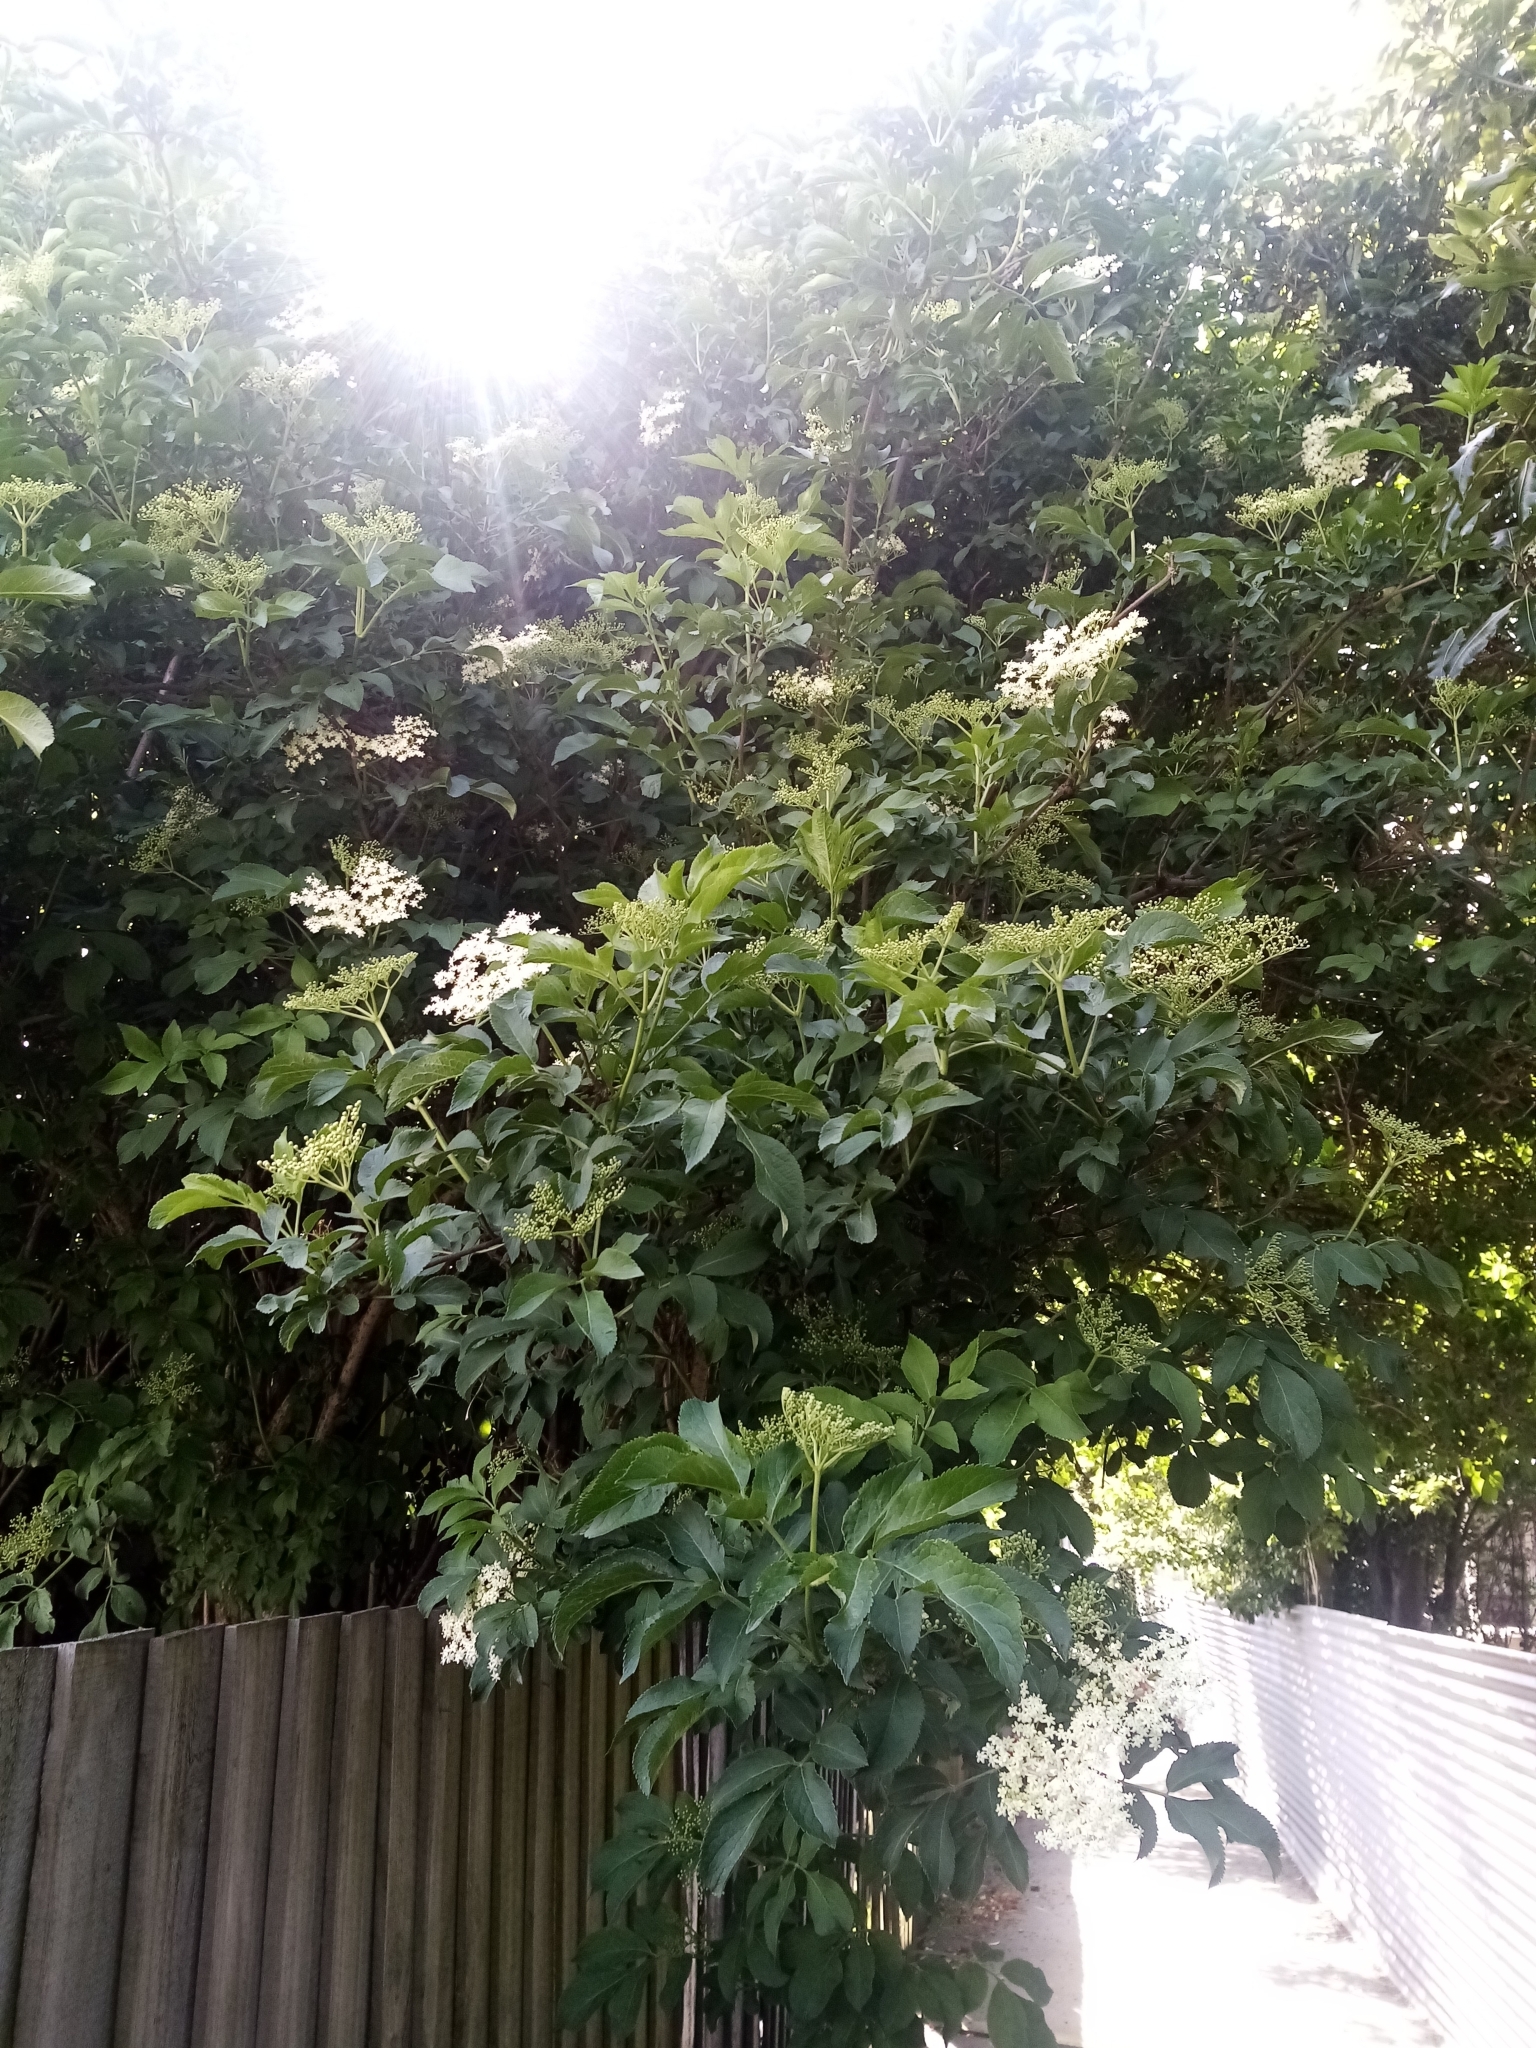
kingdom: Plantae
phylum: Tracheophyta
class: Magnoliopsida
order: Dipsacales
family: Viburnaceae
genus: Sambucus
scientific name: Sambucus nigra
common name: Elder
